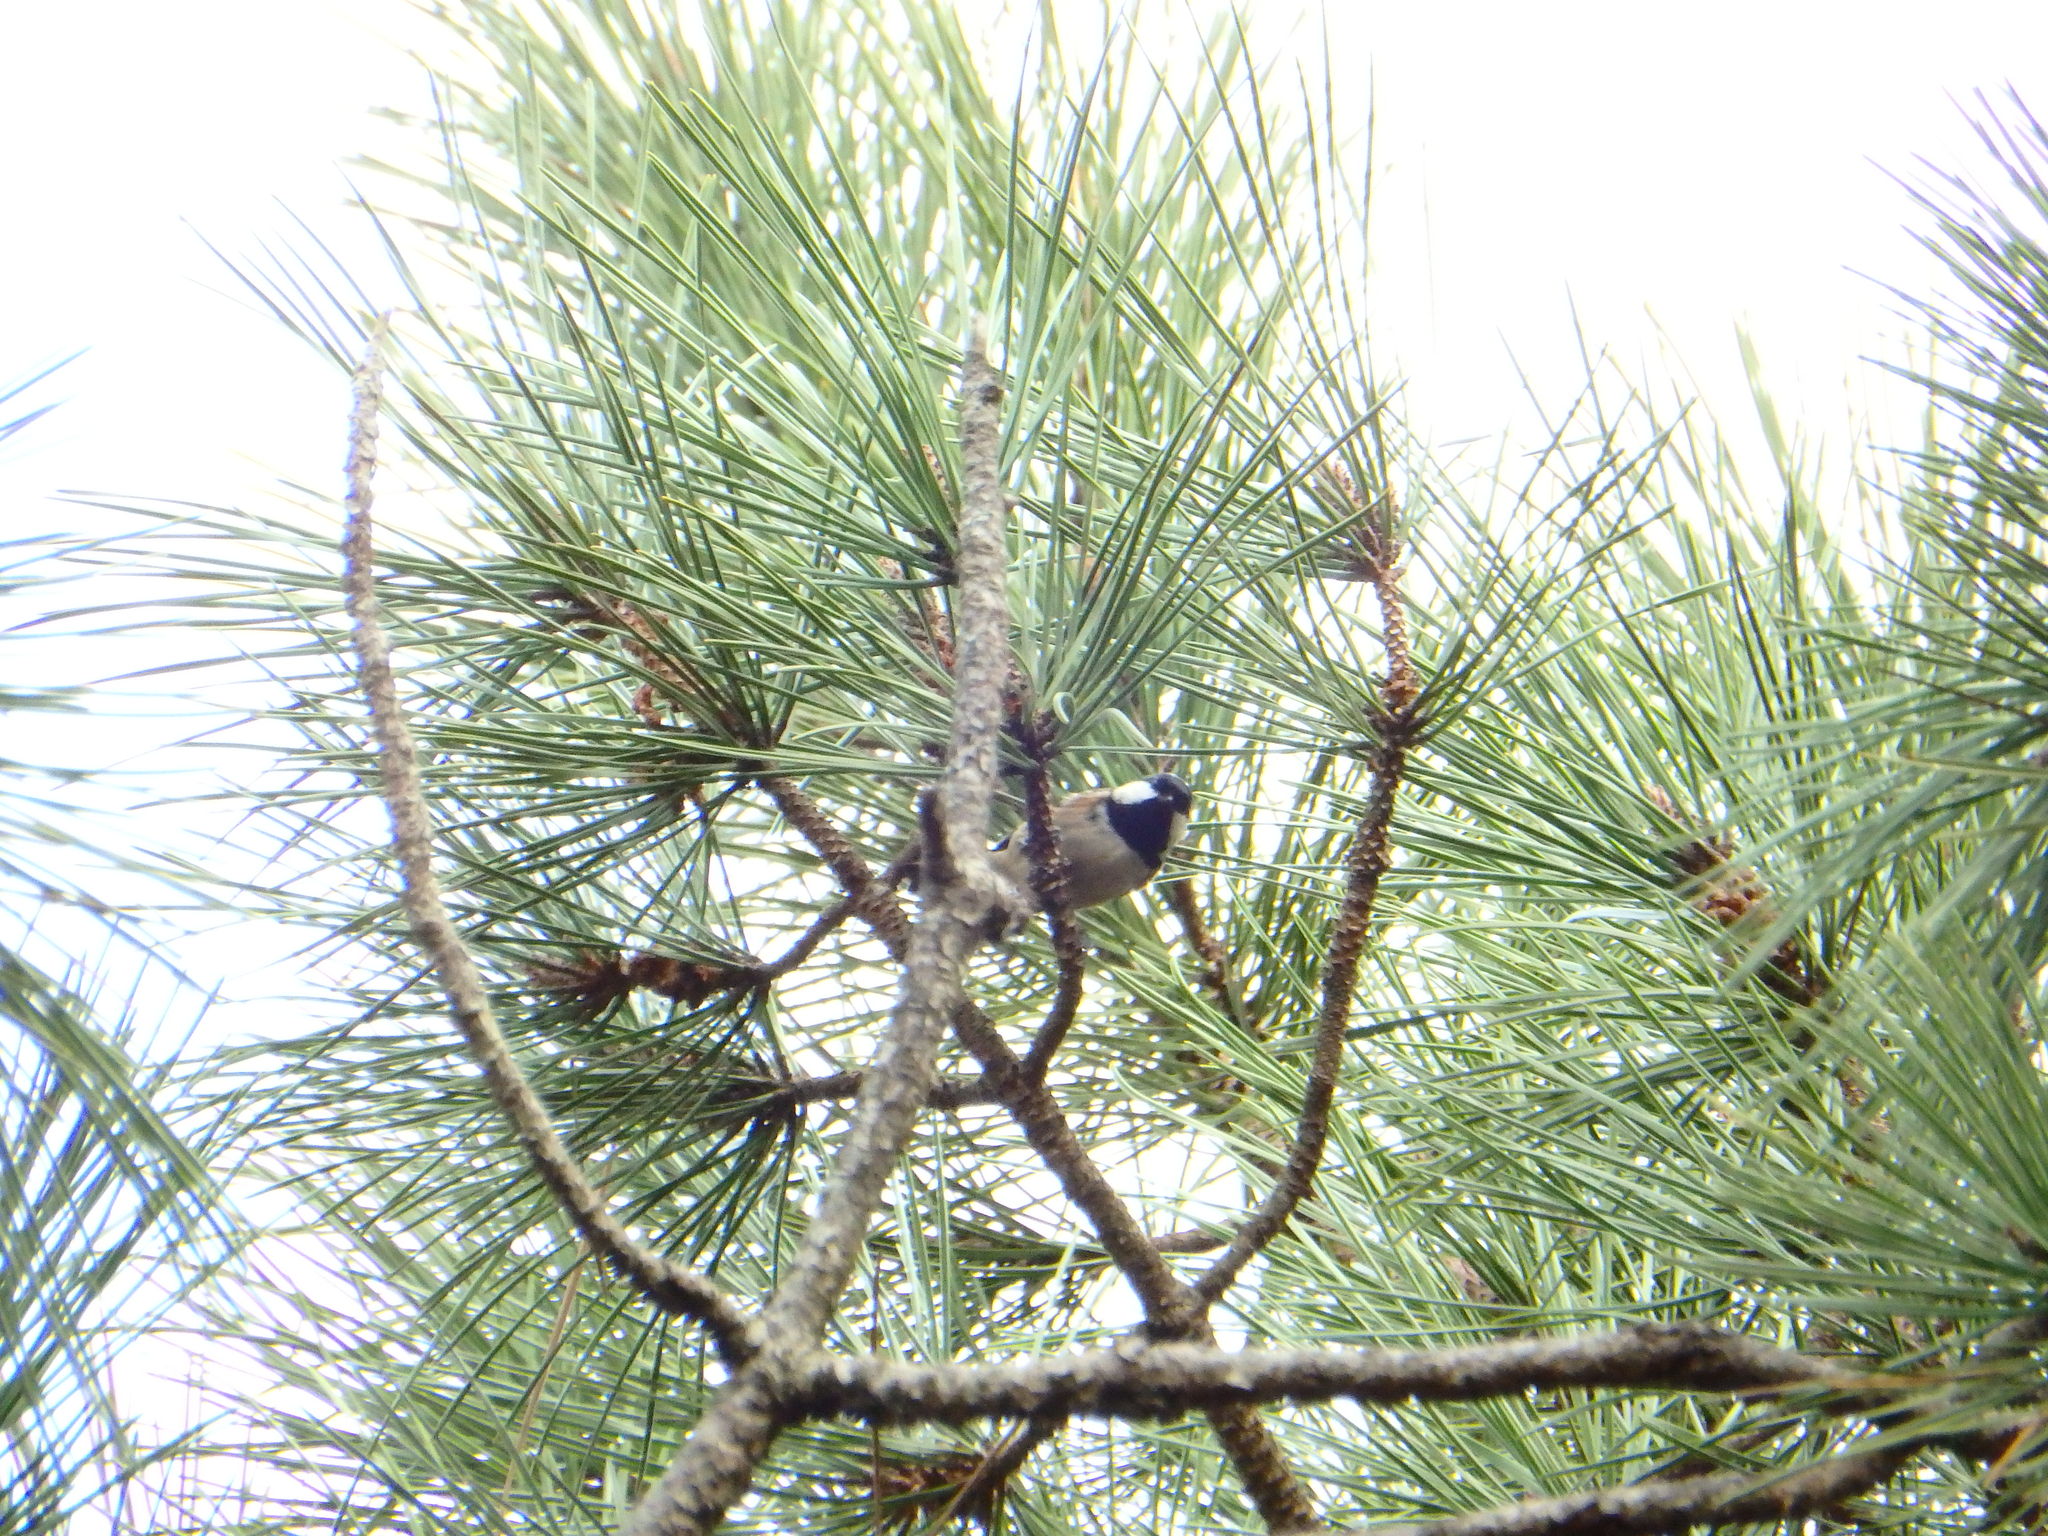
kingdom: Animalia
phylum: Chordata
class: Aves
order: Passeriformes
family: Paridae
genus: Periparus
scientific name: Periparus ater
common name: Coal tit
